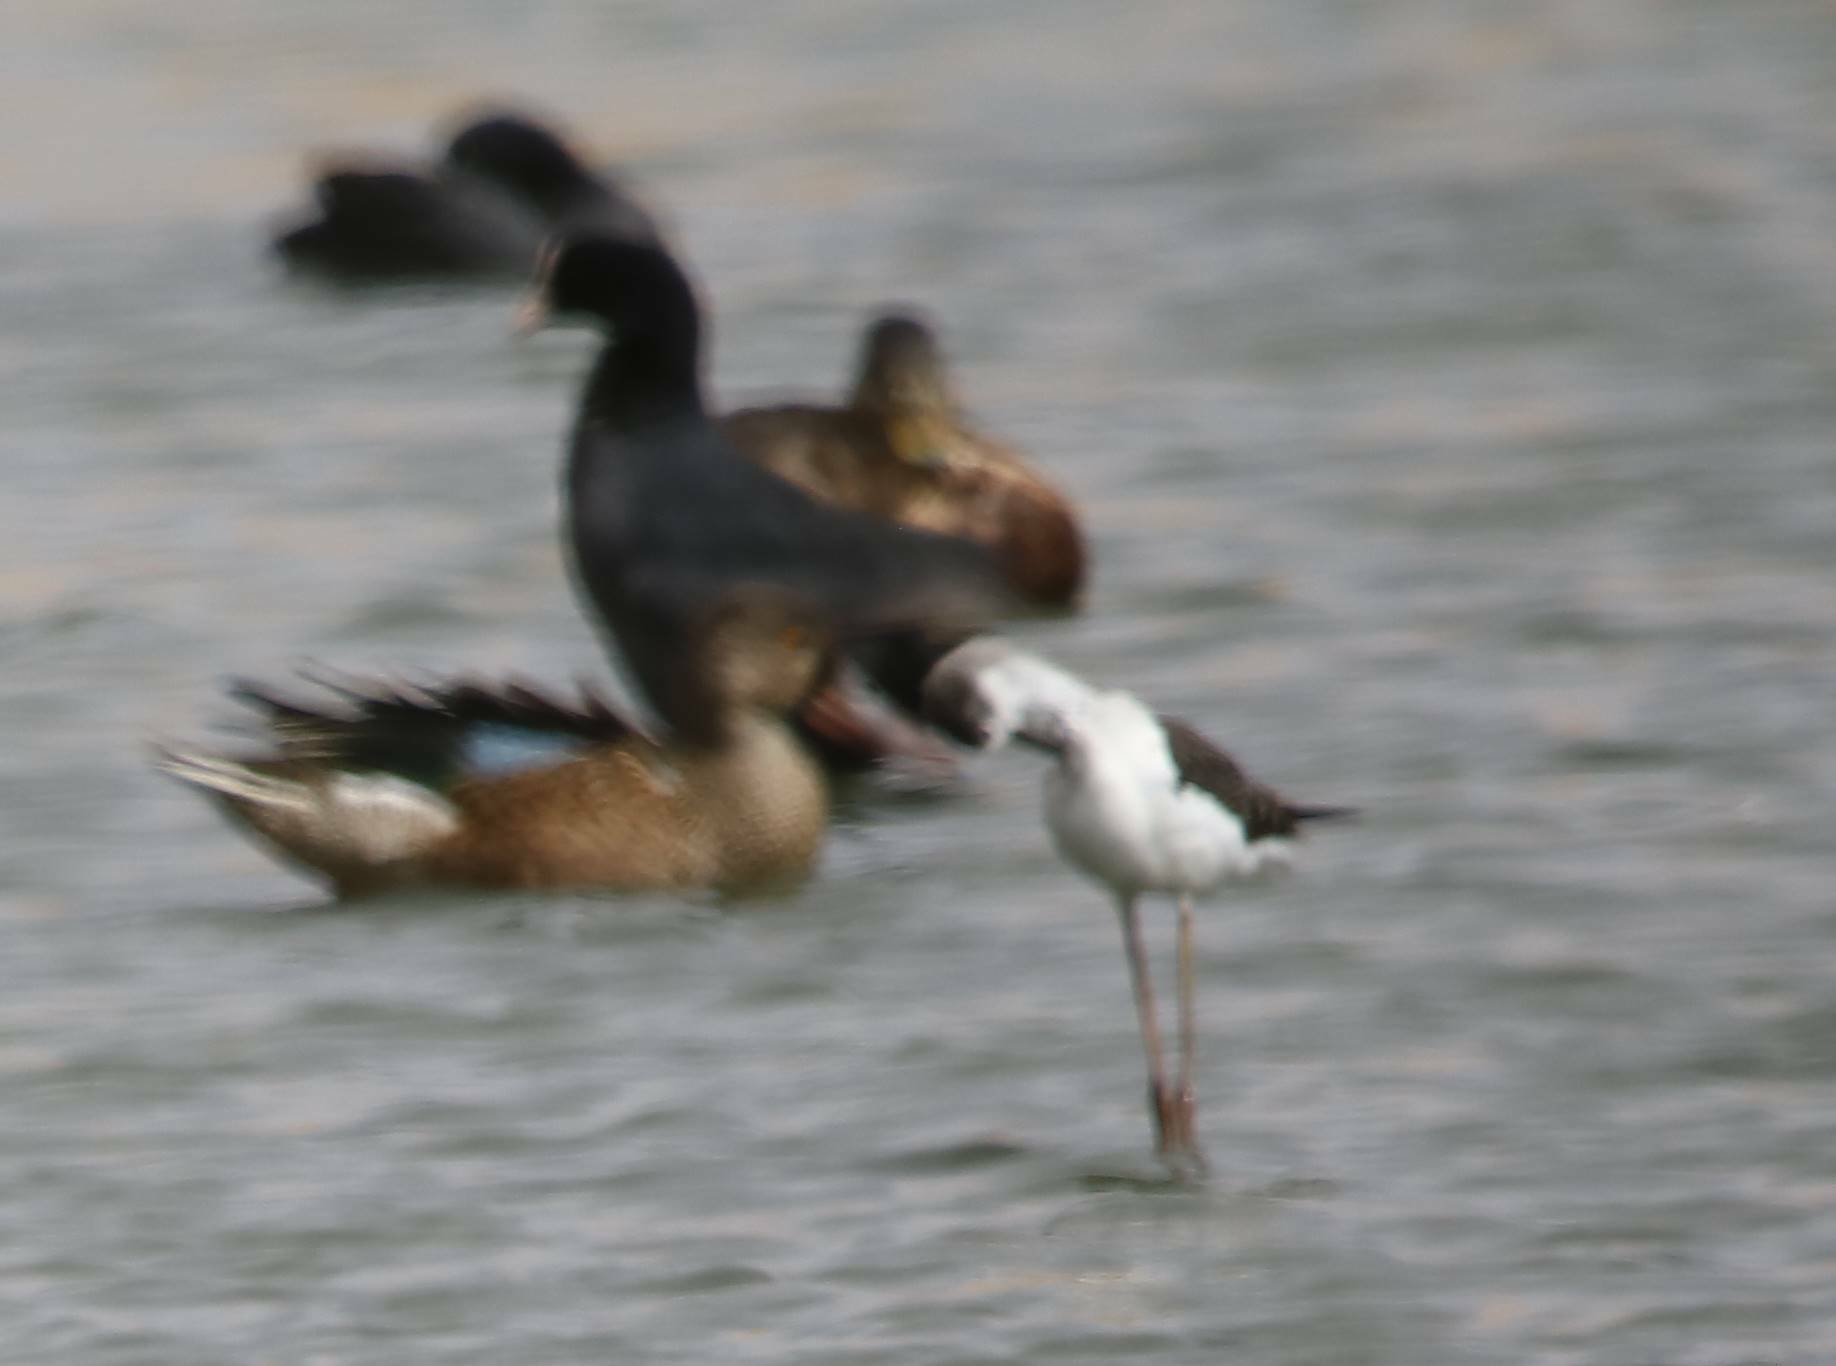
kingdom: Animalia
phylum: Chordata
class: Aves
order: Charadriiformes
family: Recurvirostridae
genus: Himantopus
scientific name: Himantopus himantopus
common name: Black-winged stilt
